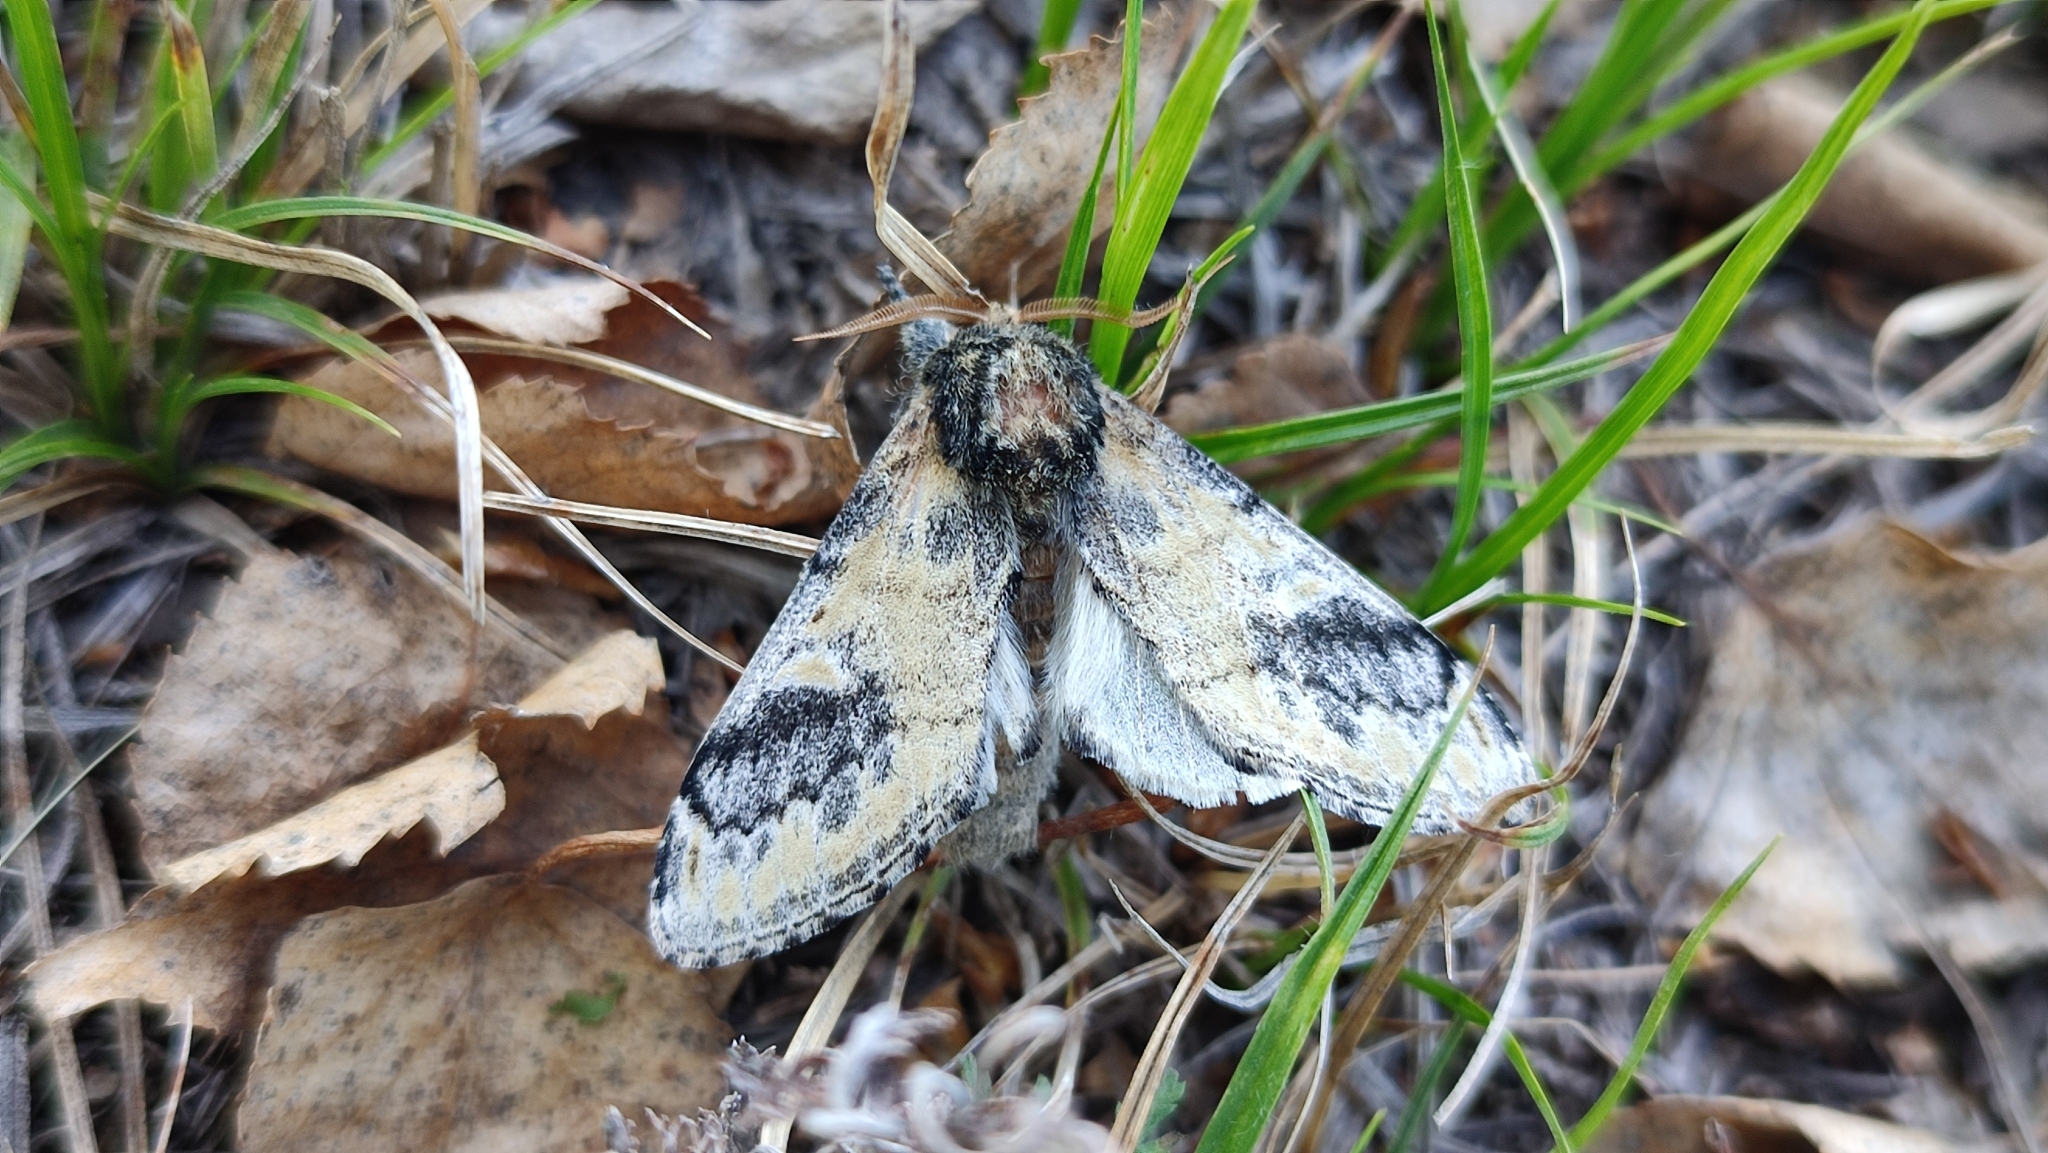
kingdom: Animalia
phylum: Arthropoda
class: Insecta
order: Lepidoptera
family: Notodontidae
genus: Notodonta
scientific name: Notodonta tritophus
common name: Three-humped prominent
